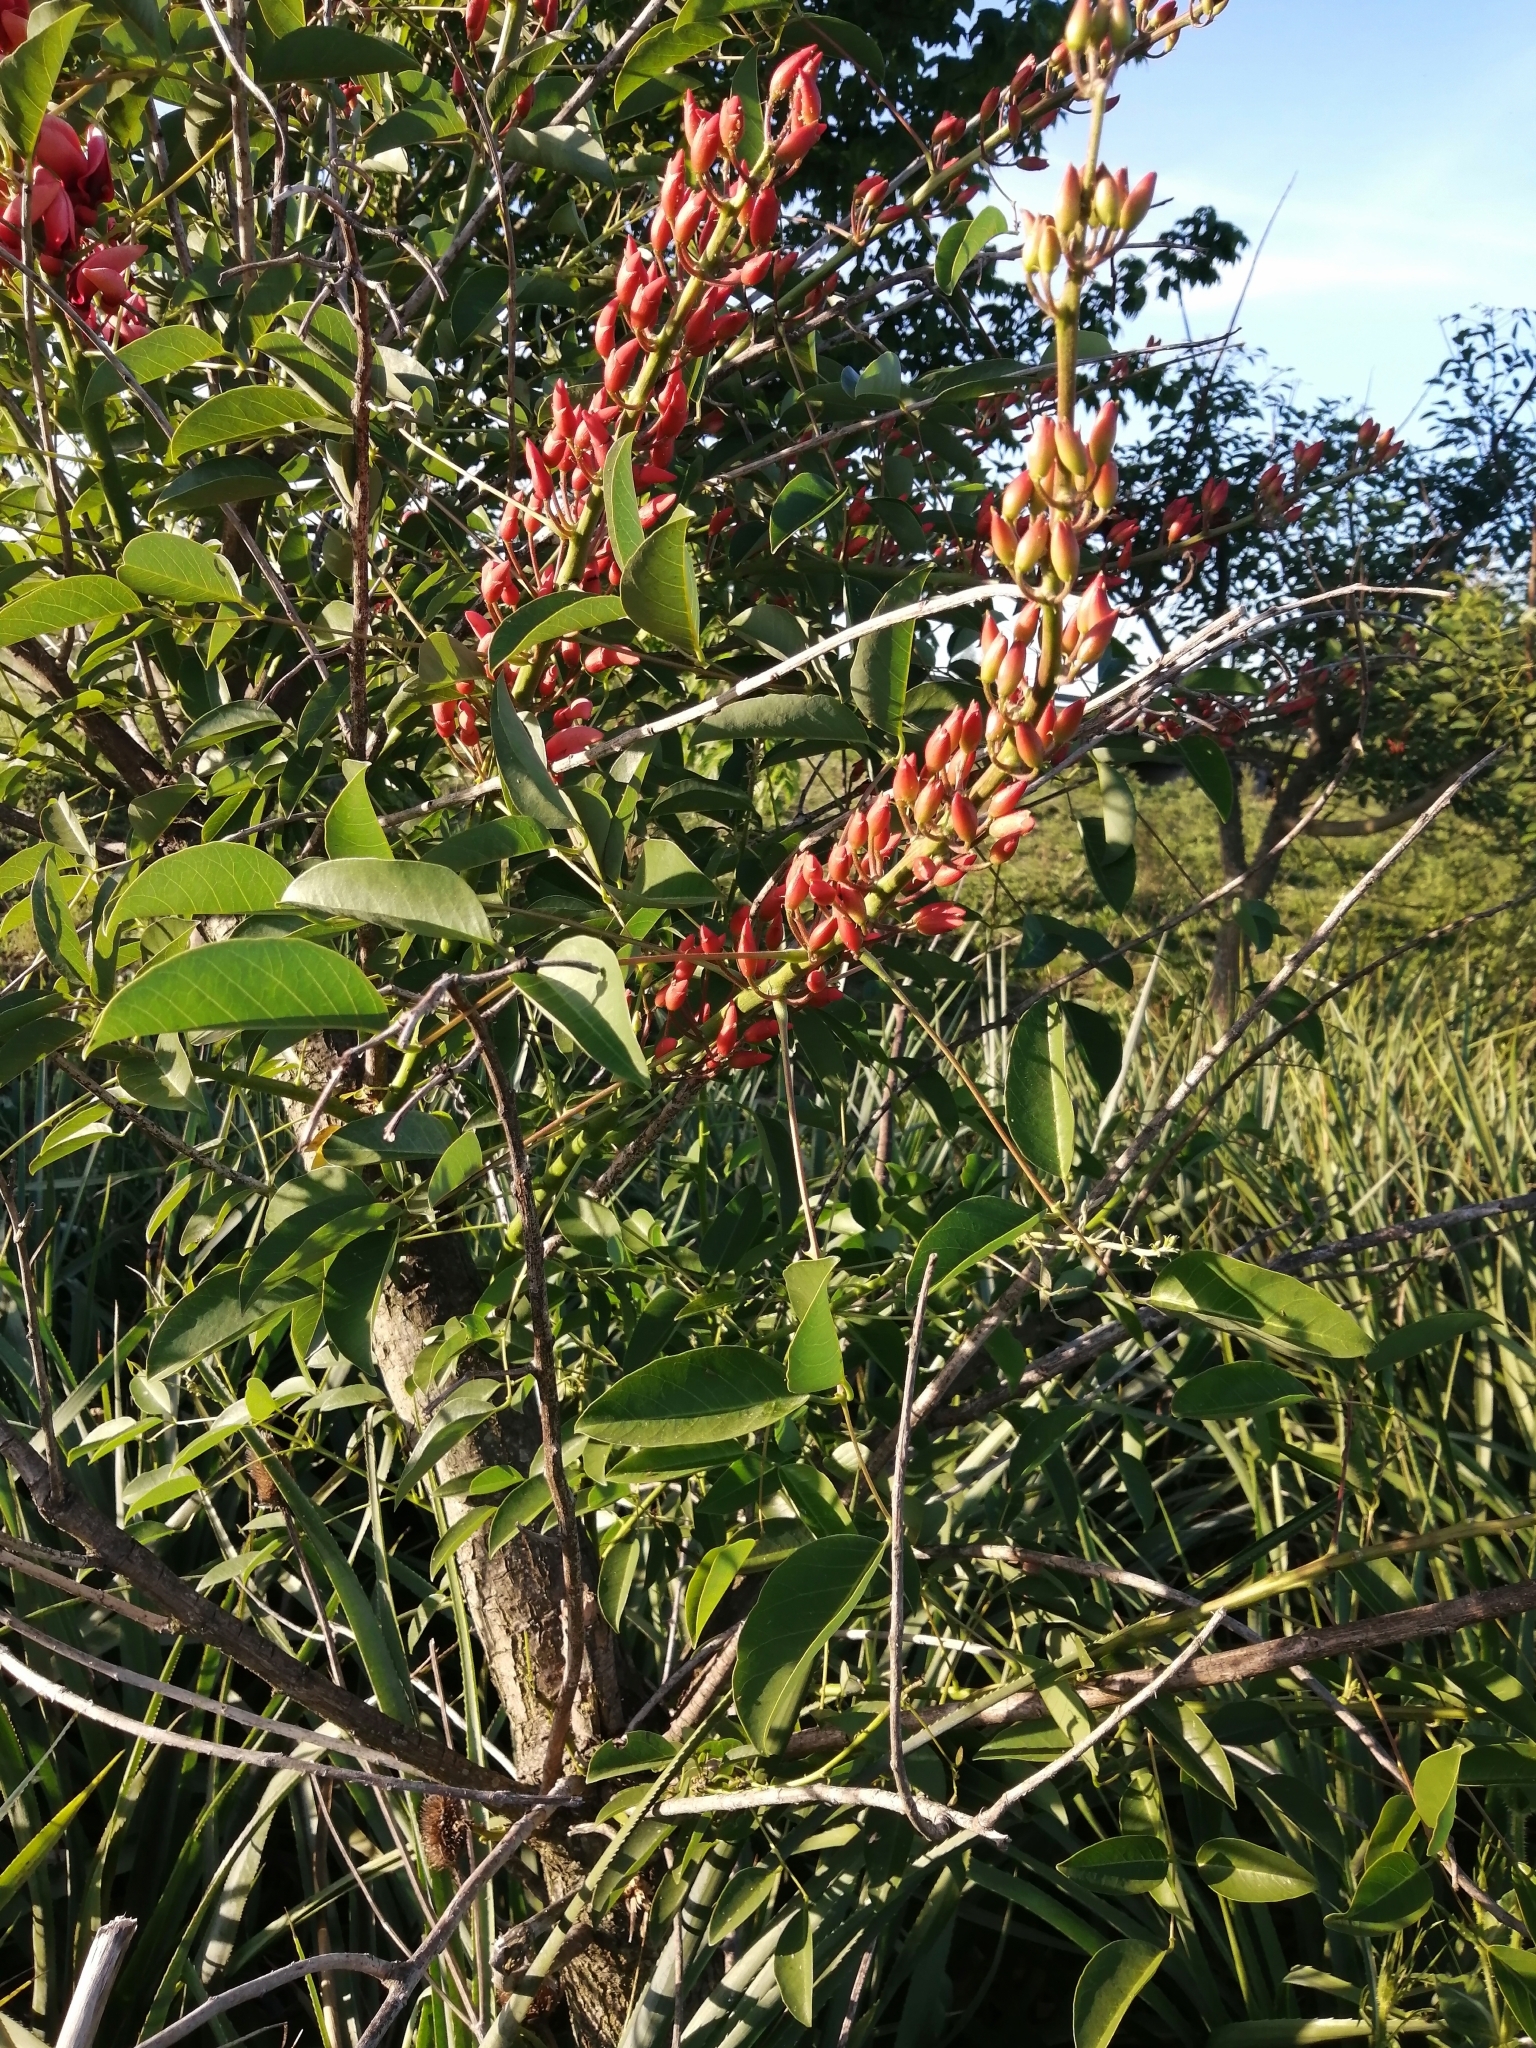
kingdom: Plantae
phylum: Tracheophyta
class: Magnoliopsida
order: Fabales
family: Fabaceae
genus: Erythrina
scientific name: Erythrina crista-galli
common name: Cockspur coral tree
